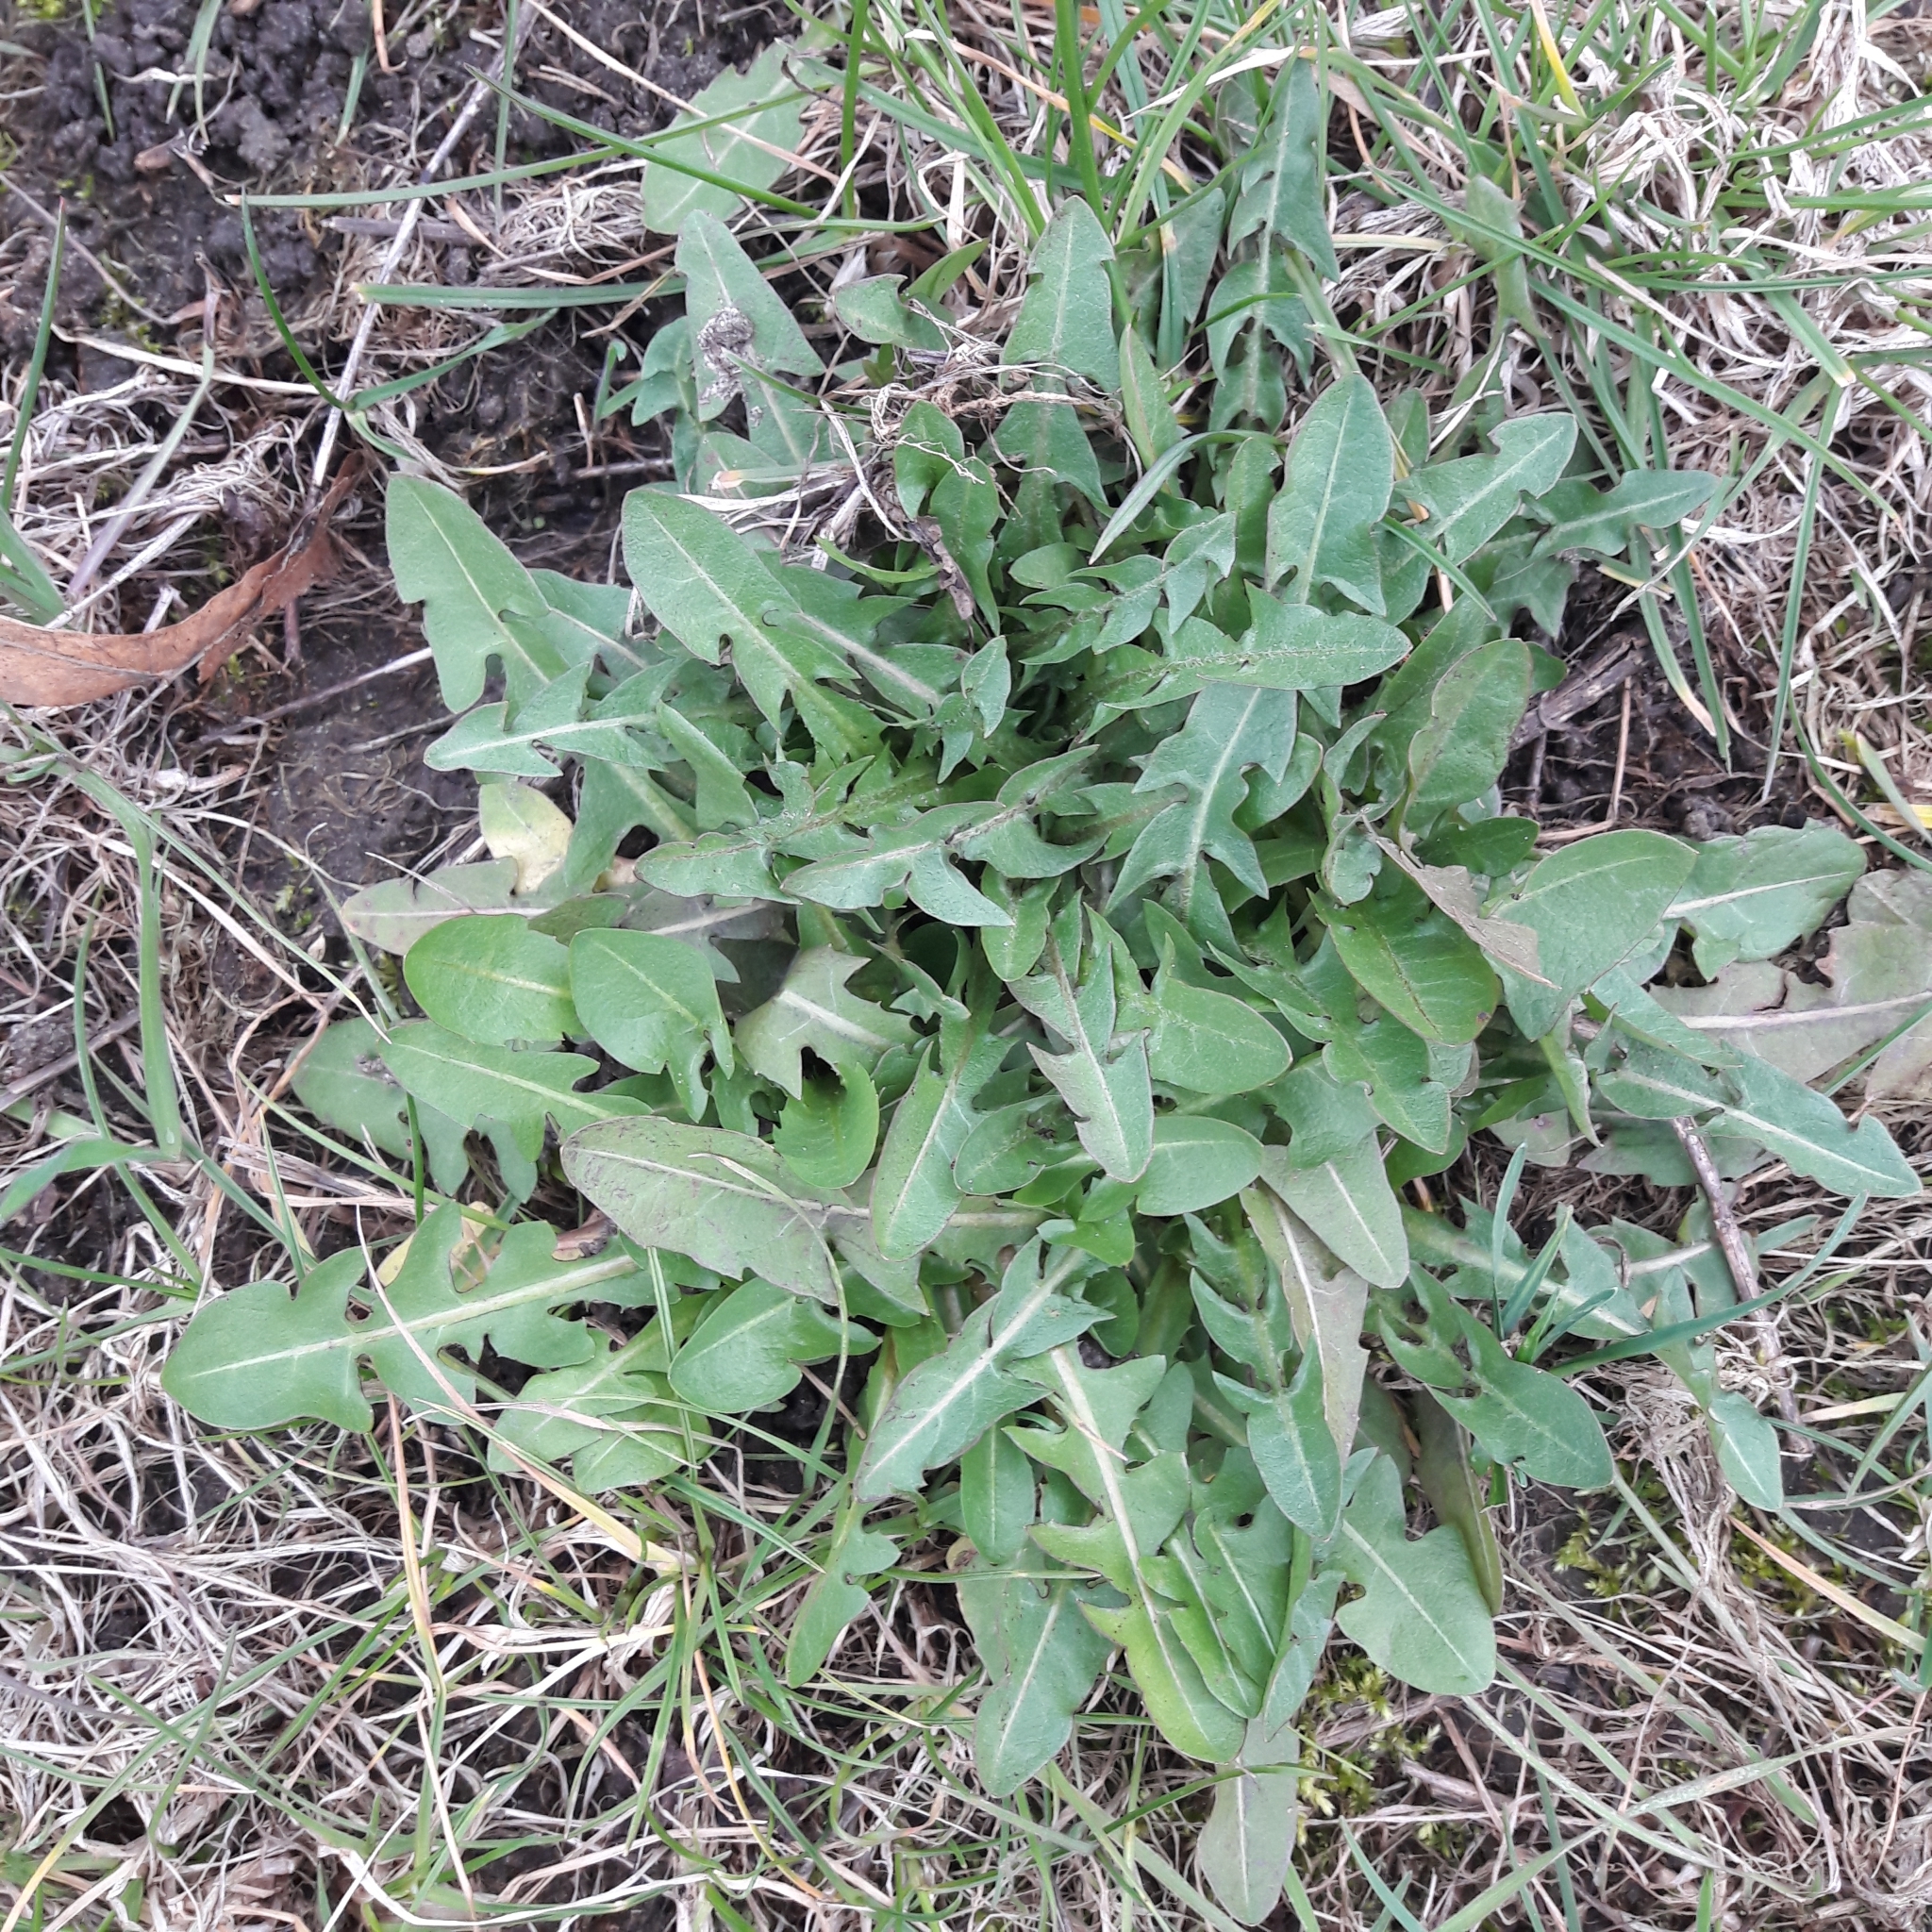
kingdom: Plantae
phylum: Tracheophyta
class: Magnoliopsida
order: Asterales
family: Asteraceae
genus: Taraxacum
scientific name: Taraxacum officinale
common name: Common dandelion
